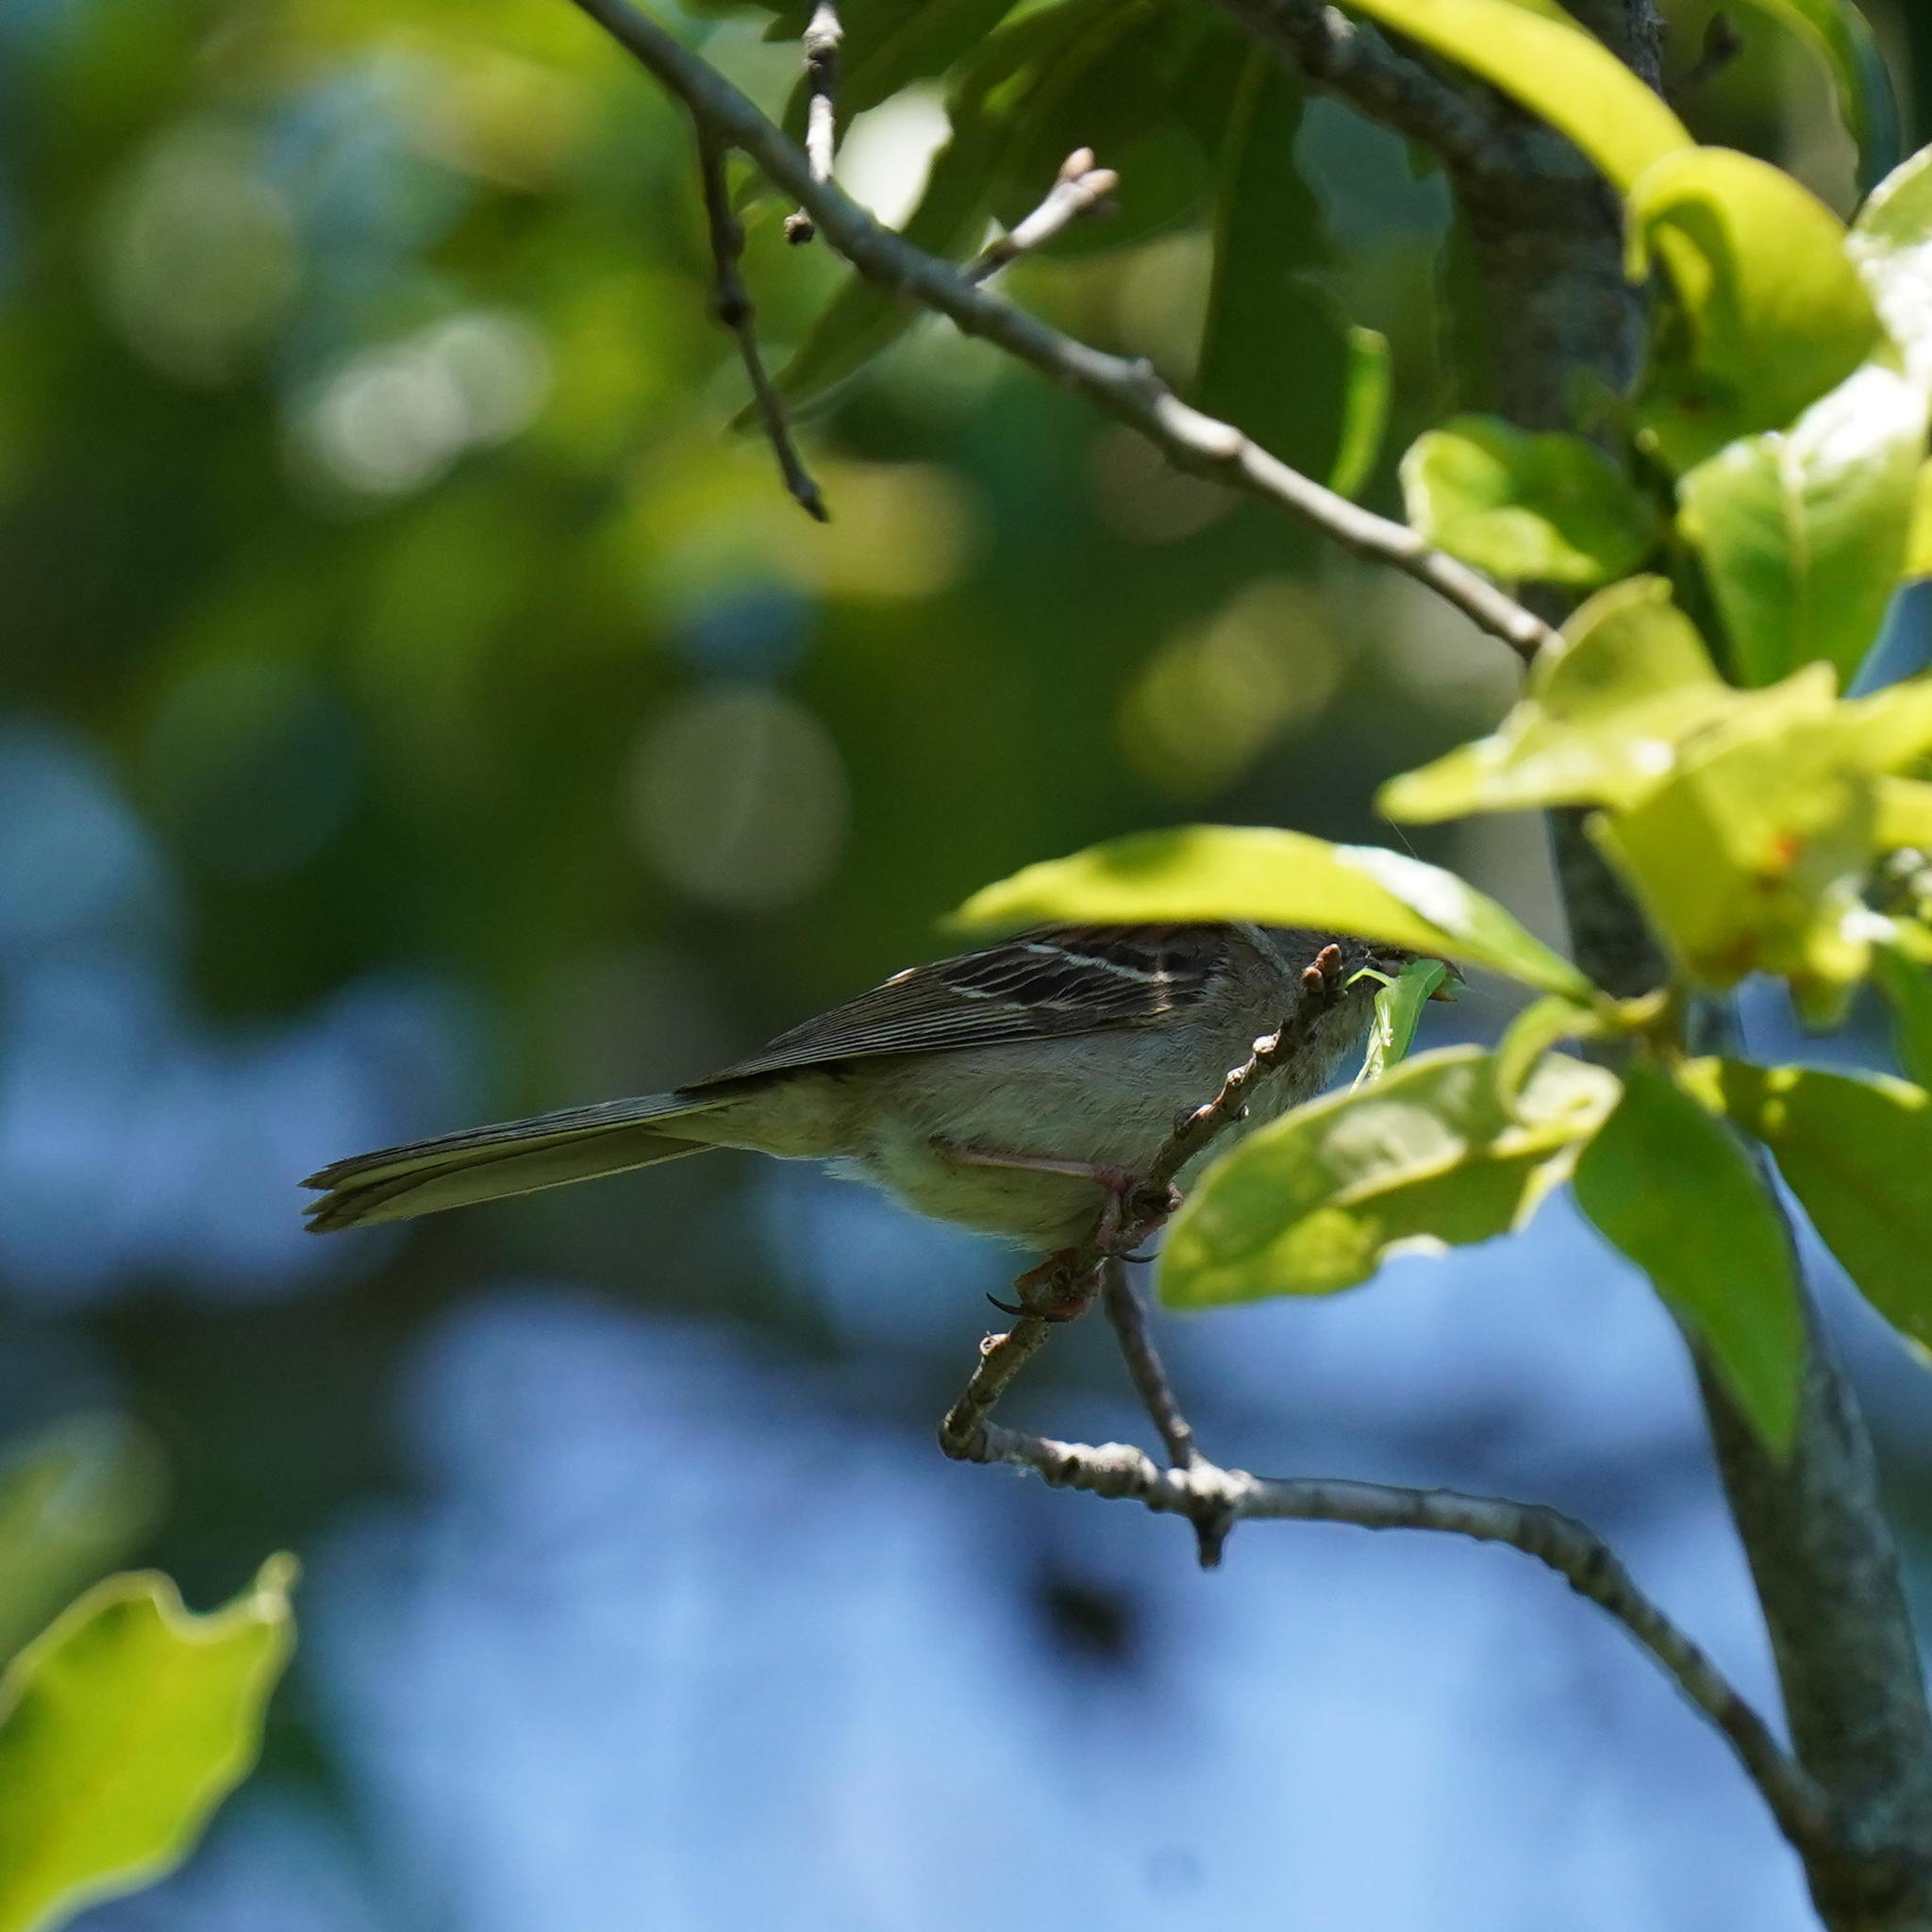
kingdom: Animalia
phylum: Chordata
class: Aves
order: Passeriformes
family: Passerellidae
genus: Spizella
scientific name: Spizella pusilla
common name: Field sparrow
